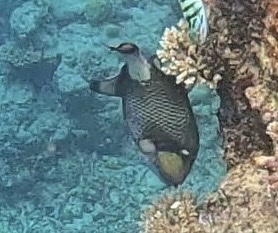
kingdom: Animalia
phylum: Chordata
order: Tetraodontiformes
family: Balistidae
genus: Balistoides
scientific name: Balistoides viridescens
